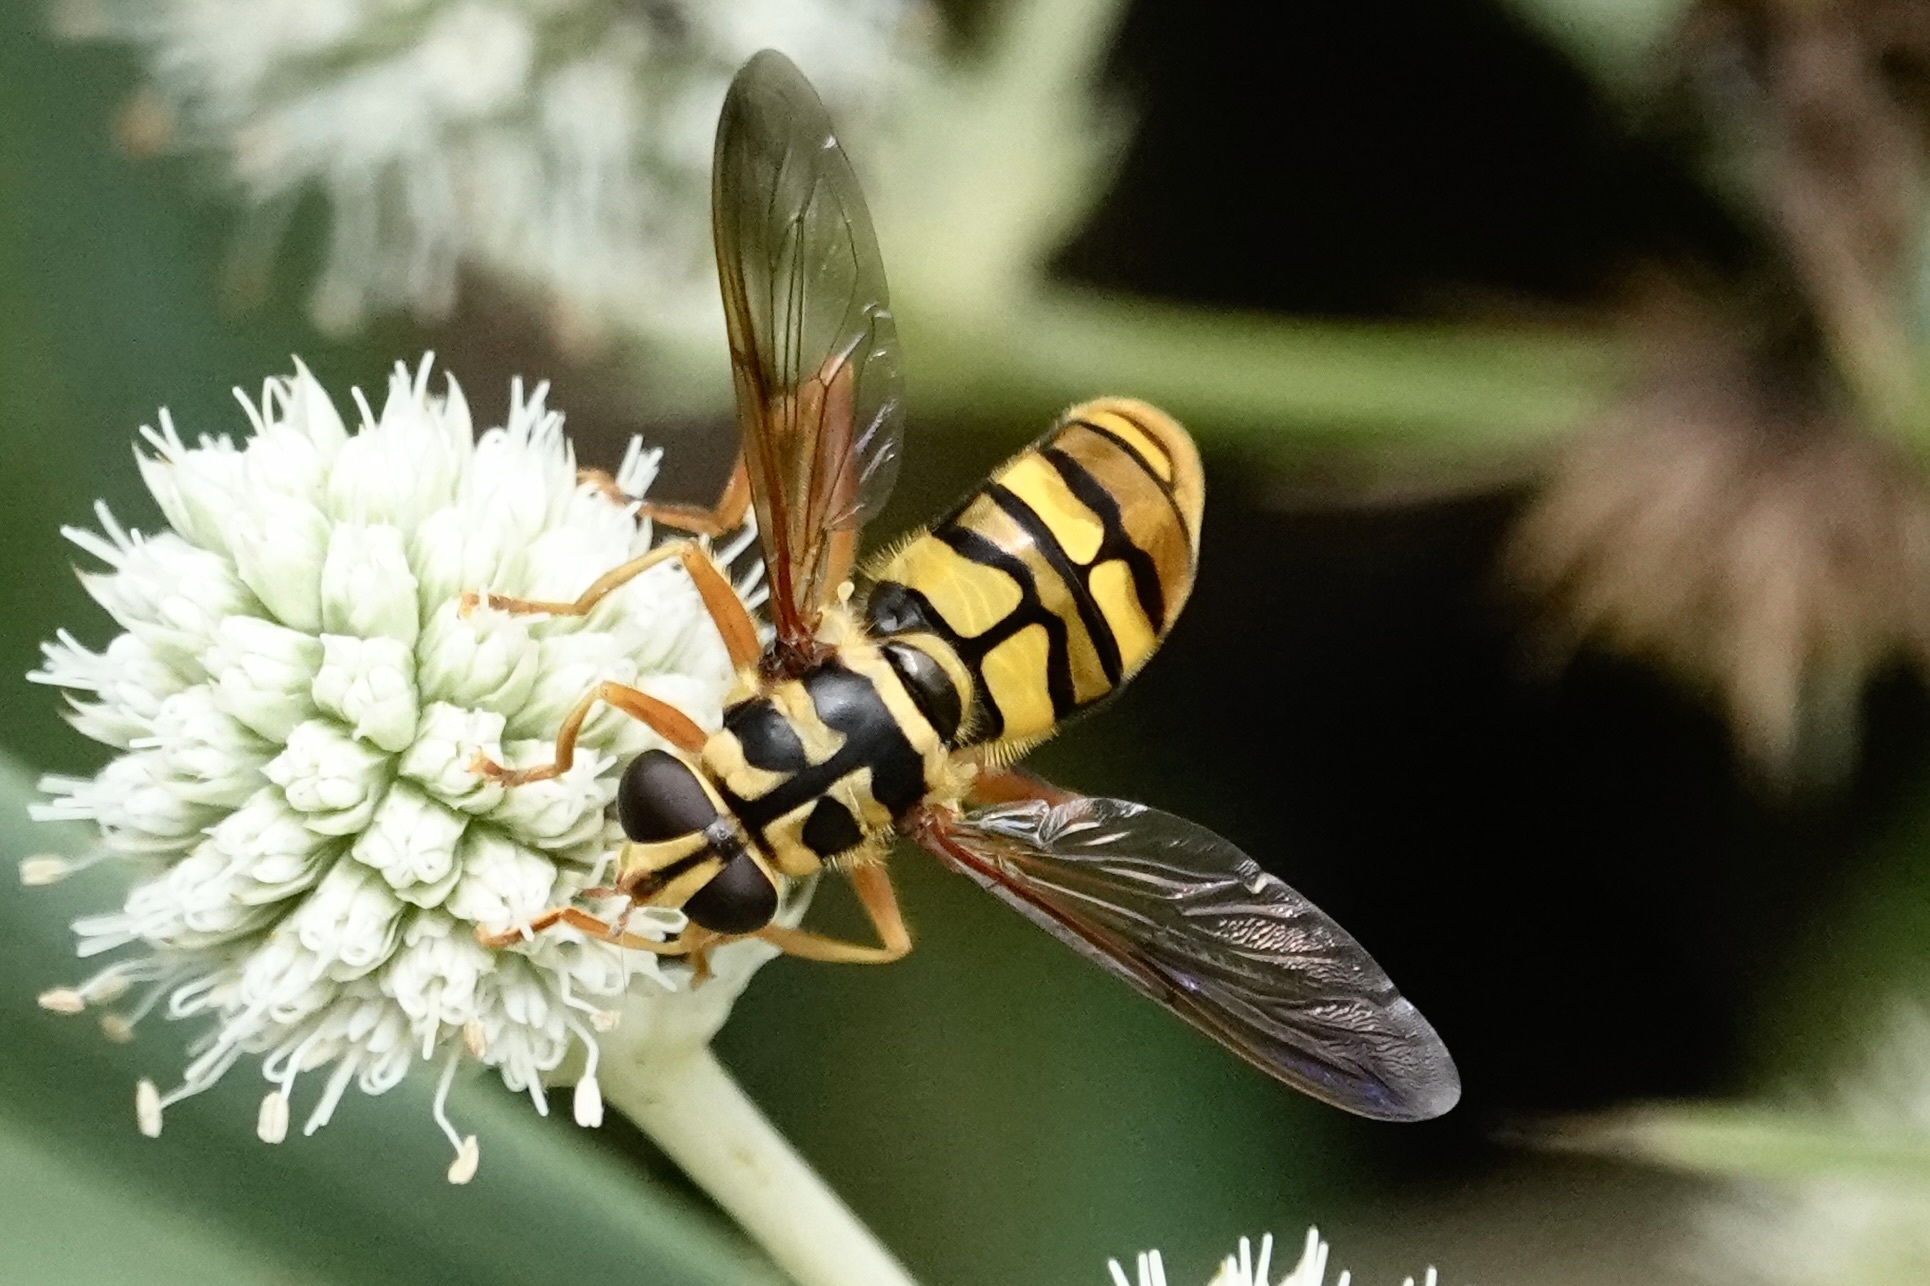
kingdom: Animalia
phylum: Arthropoda
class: Insecta
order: Diptera
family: Syrphidae
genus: Milesia
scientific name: Milesia virginiensis
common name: Virginia giant
